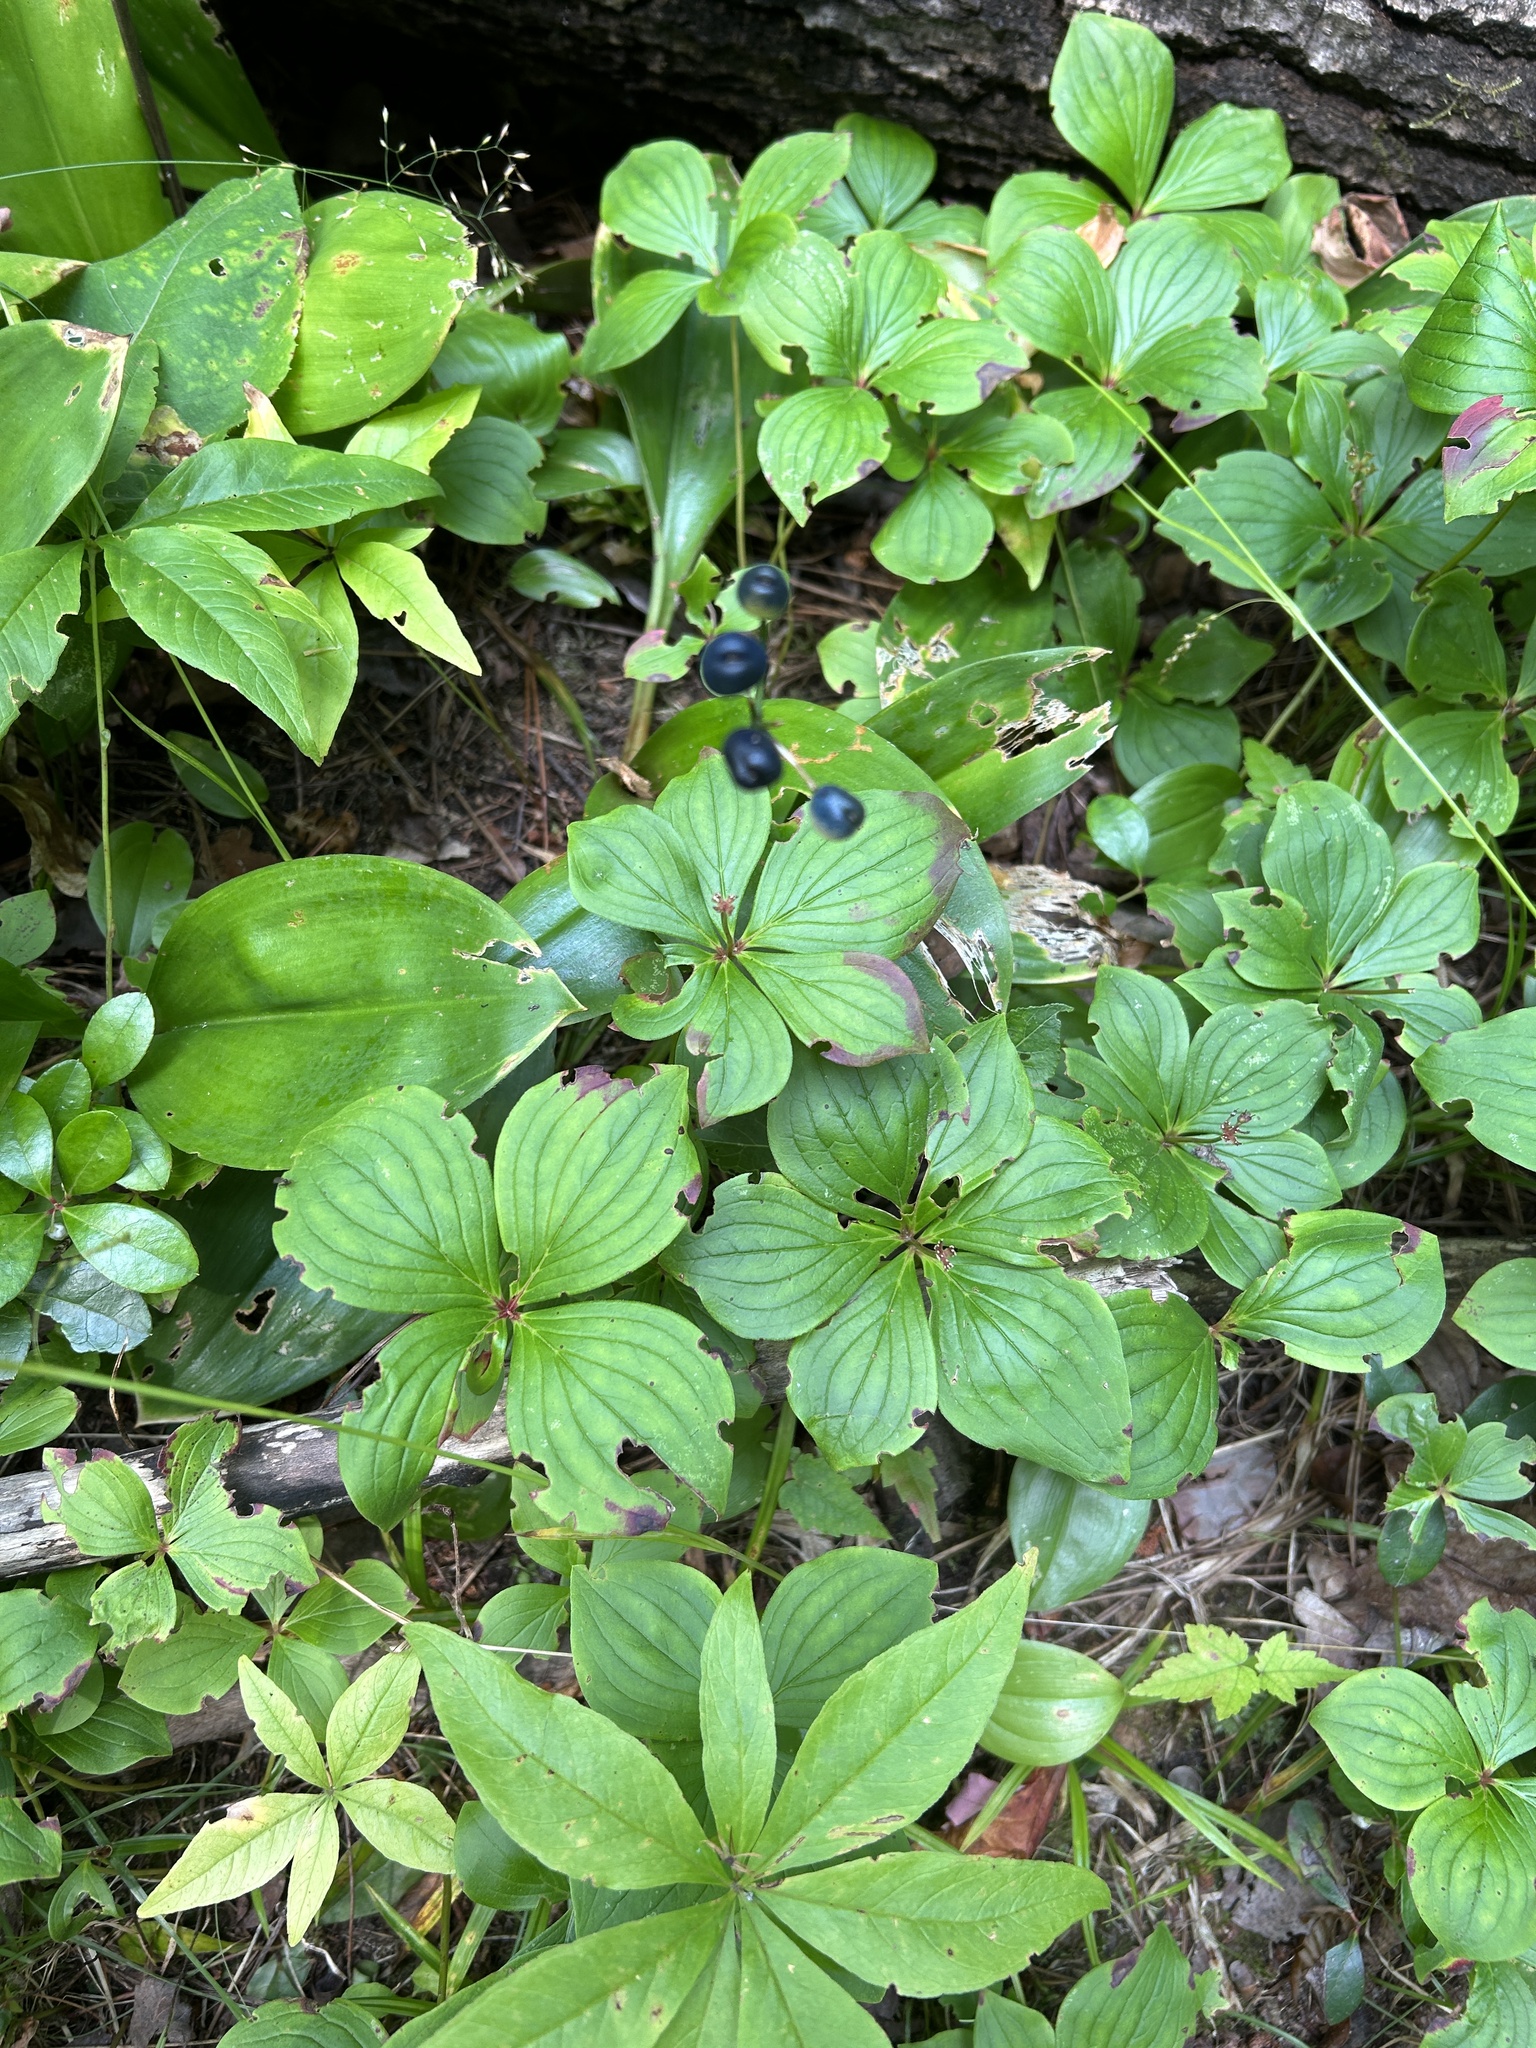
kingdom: Plantae
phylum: Tracheophyta
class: Liliopsida
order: Liliales
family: Liliaceae
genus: Clintonia
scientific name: Clintonia borealis
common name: Yellow clintonia
